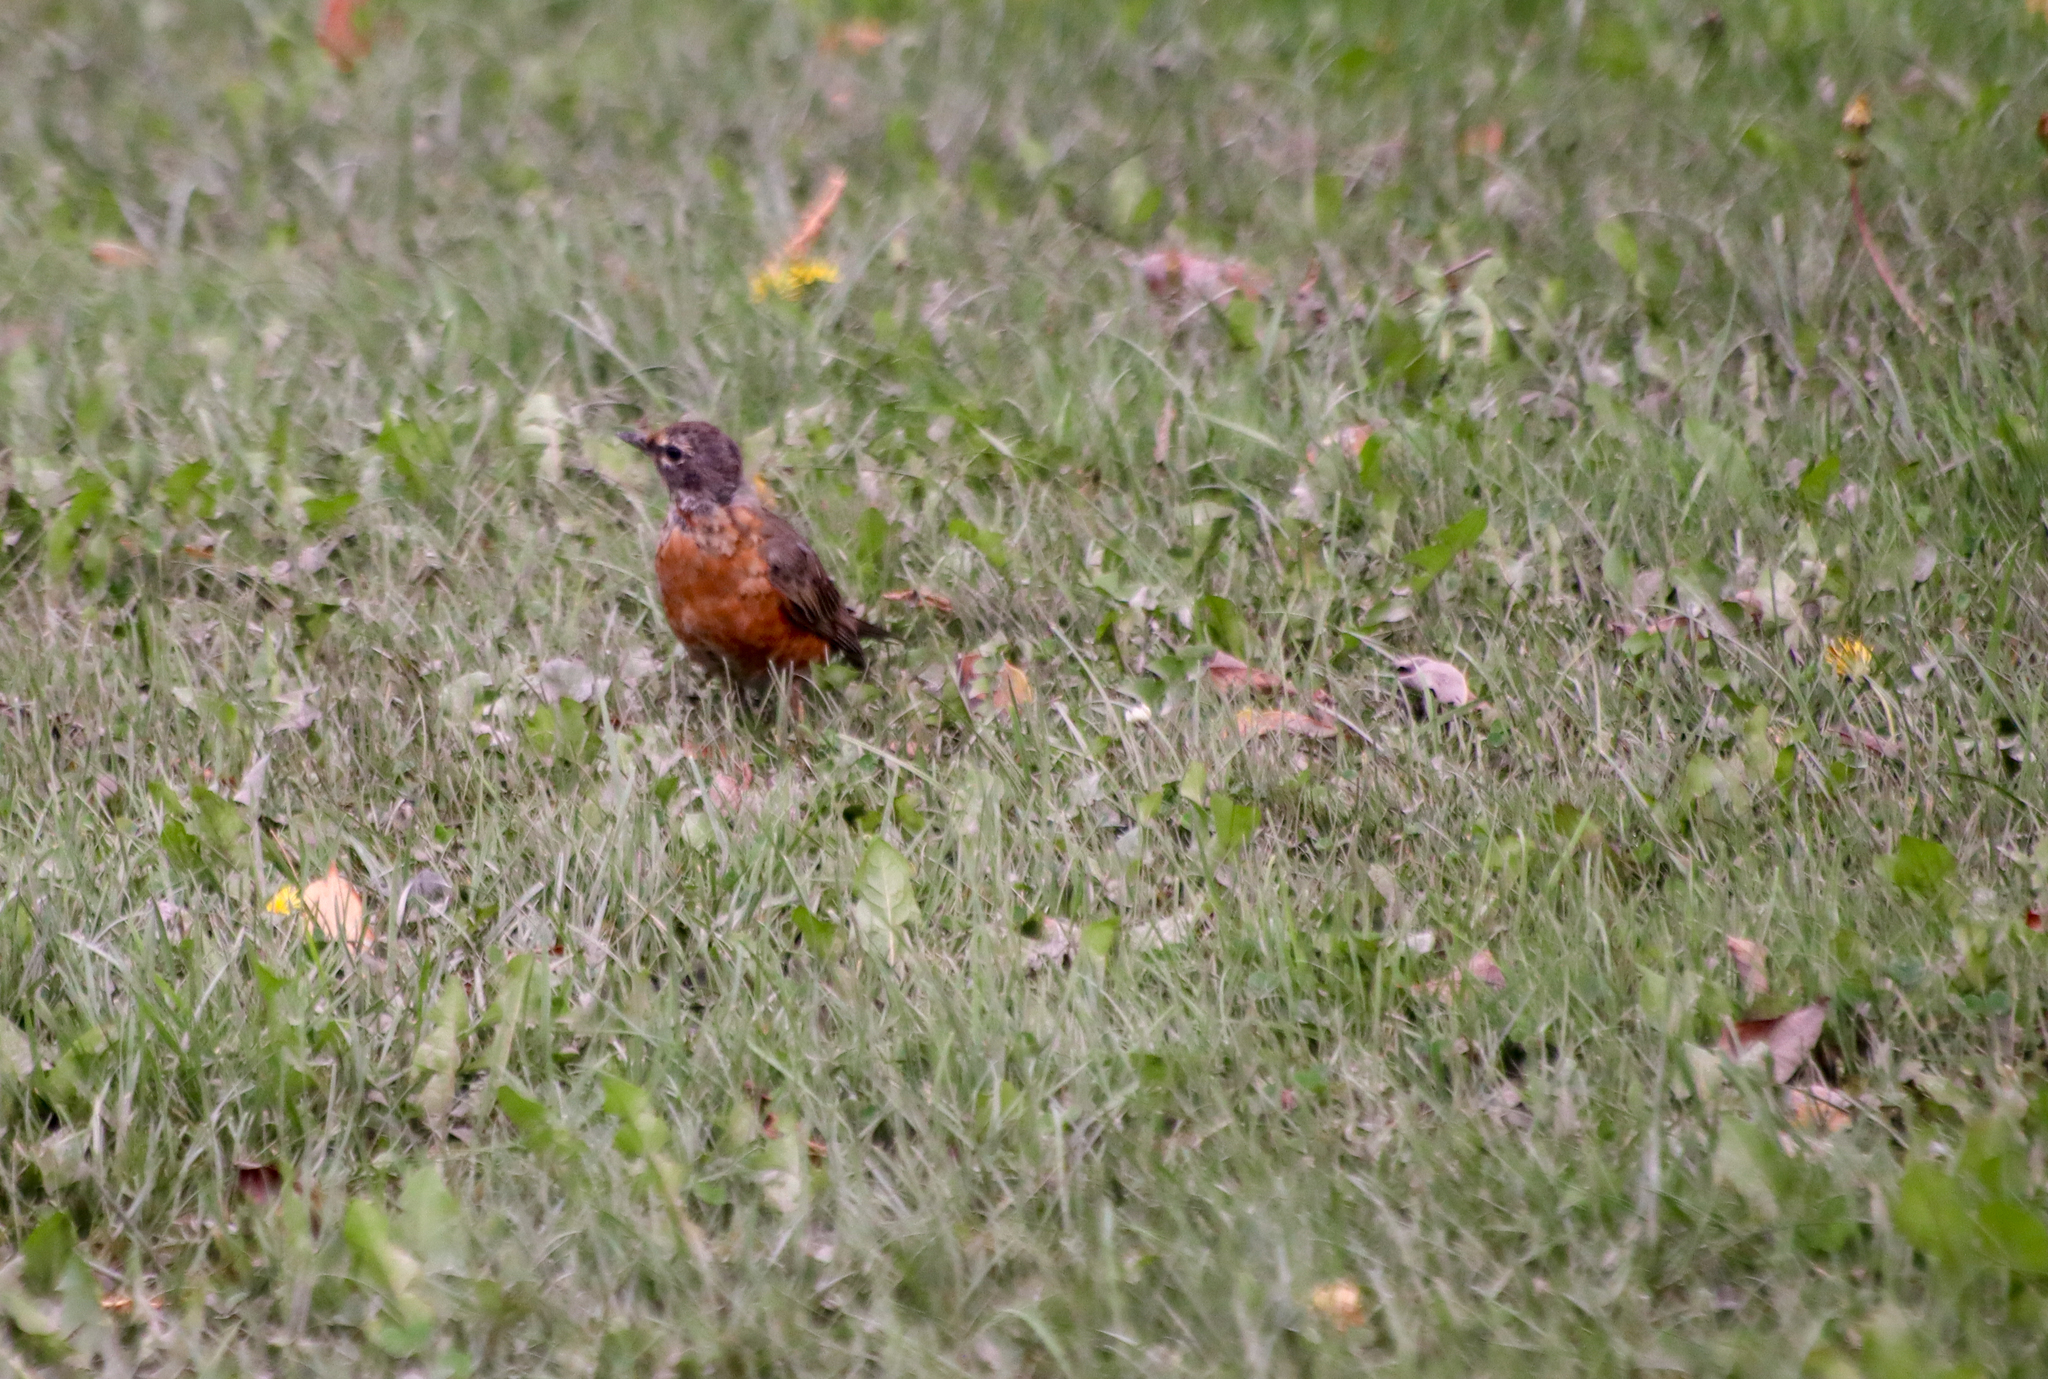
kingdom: Animalia
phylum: Chordata
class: Aves
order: Passeriformes
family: Turdidae
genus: Turdus
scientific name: Turdus migratorius
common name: American robin
